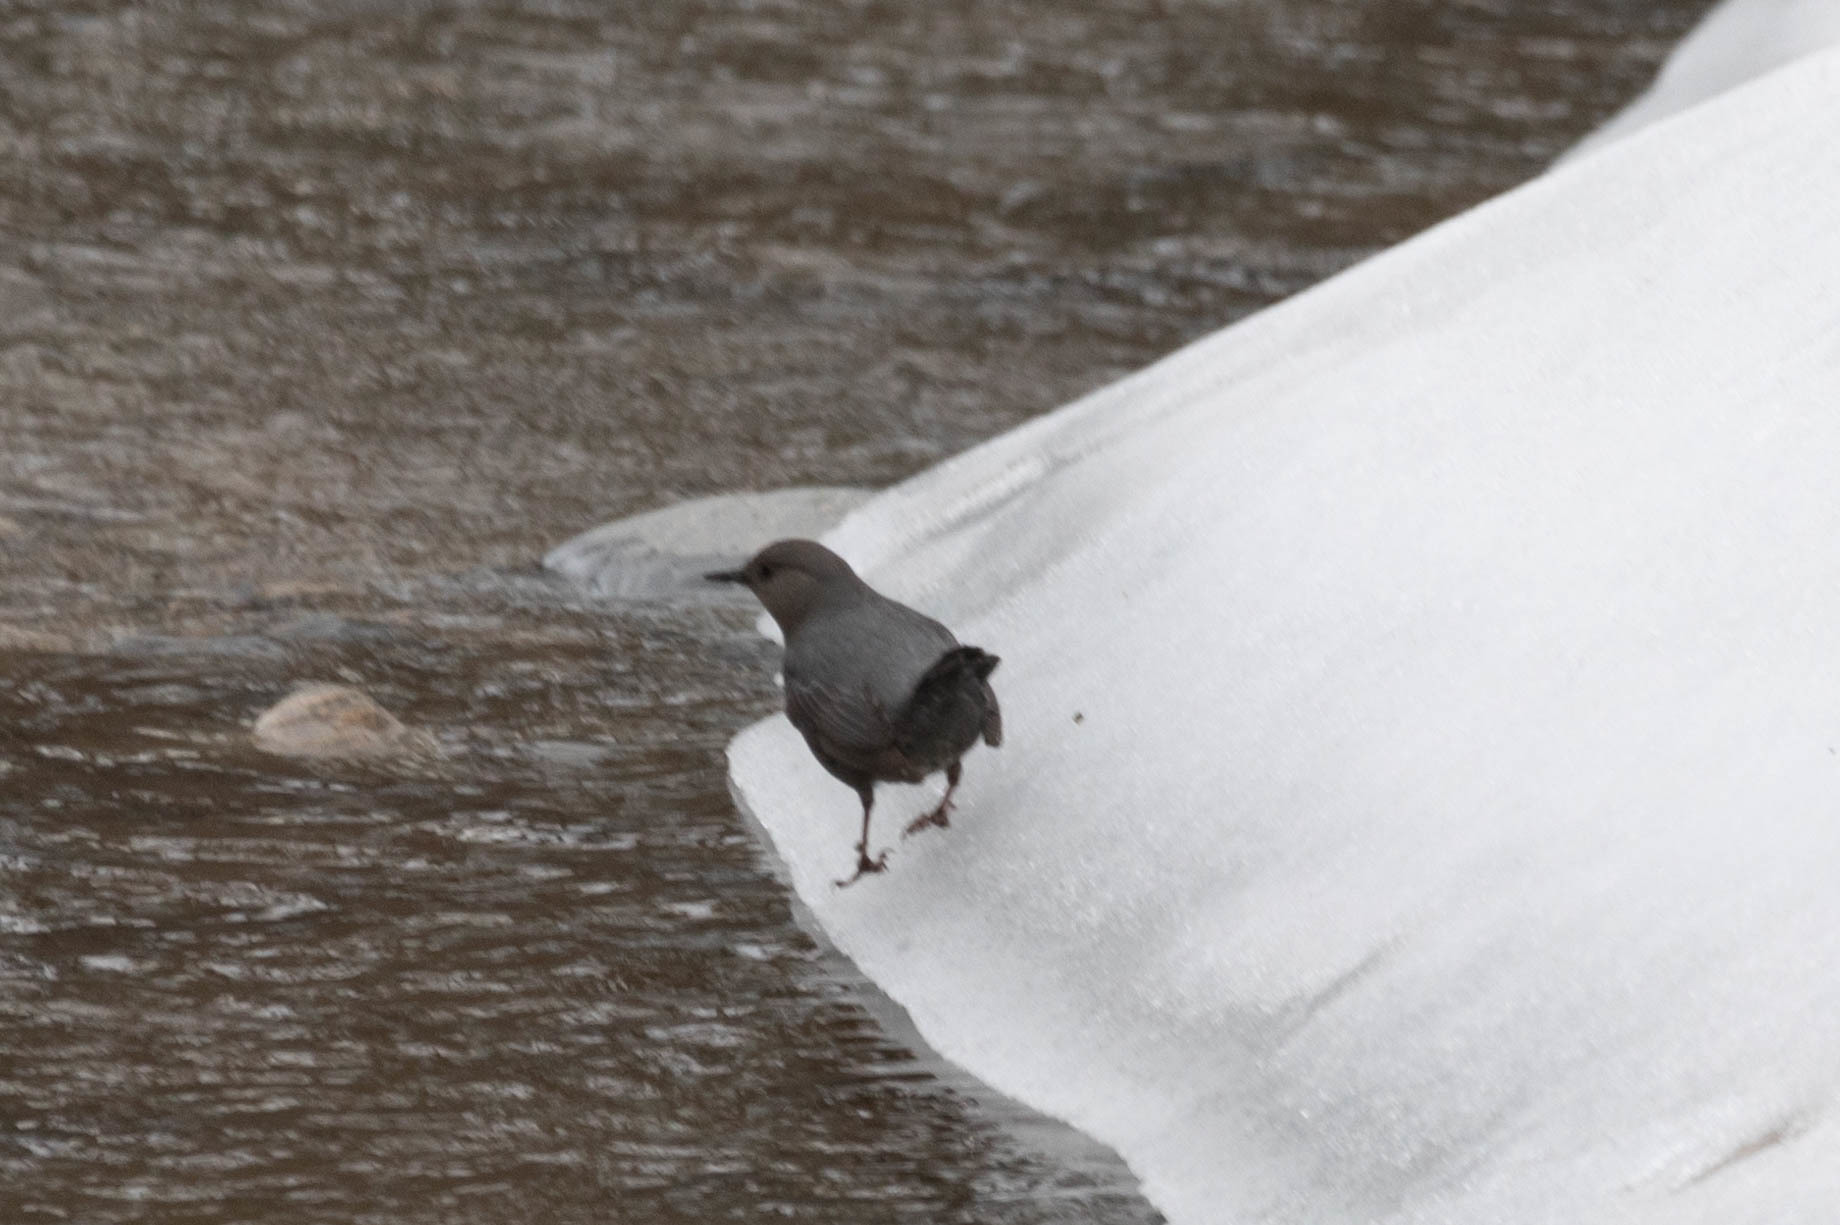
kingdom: Animalia
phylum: Chordata
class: Aves
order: Passeriformes
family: Cinclidae
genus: Cinclus
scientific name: Cinclus mexicanus
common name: American dipper
